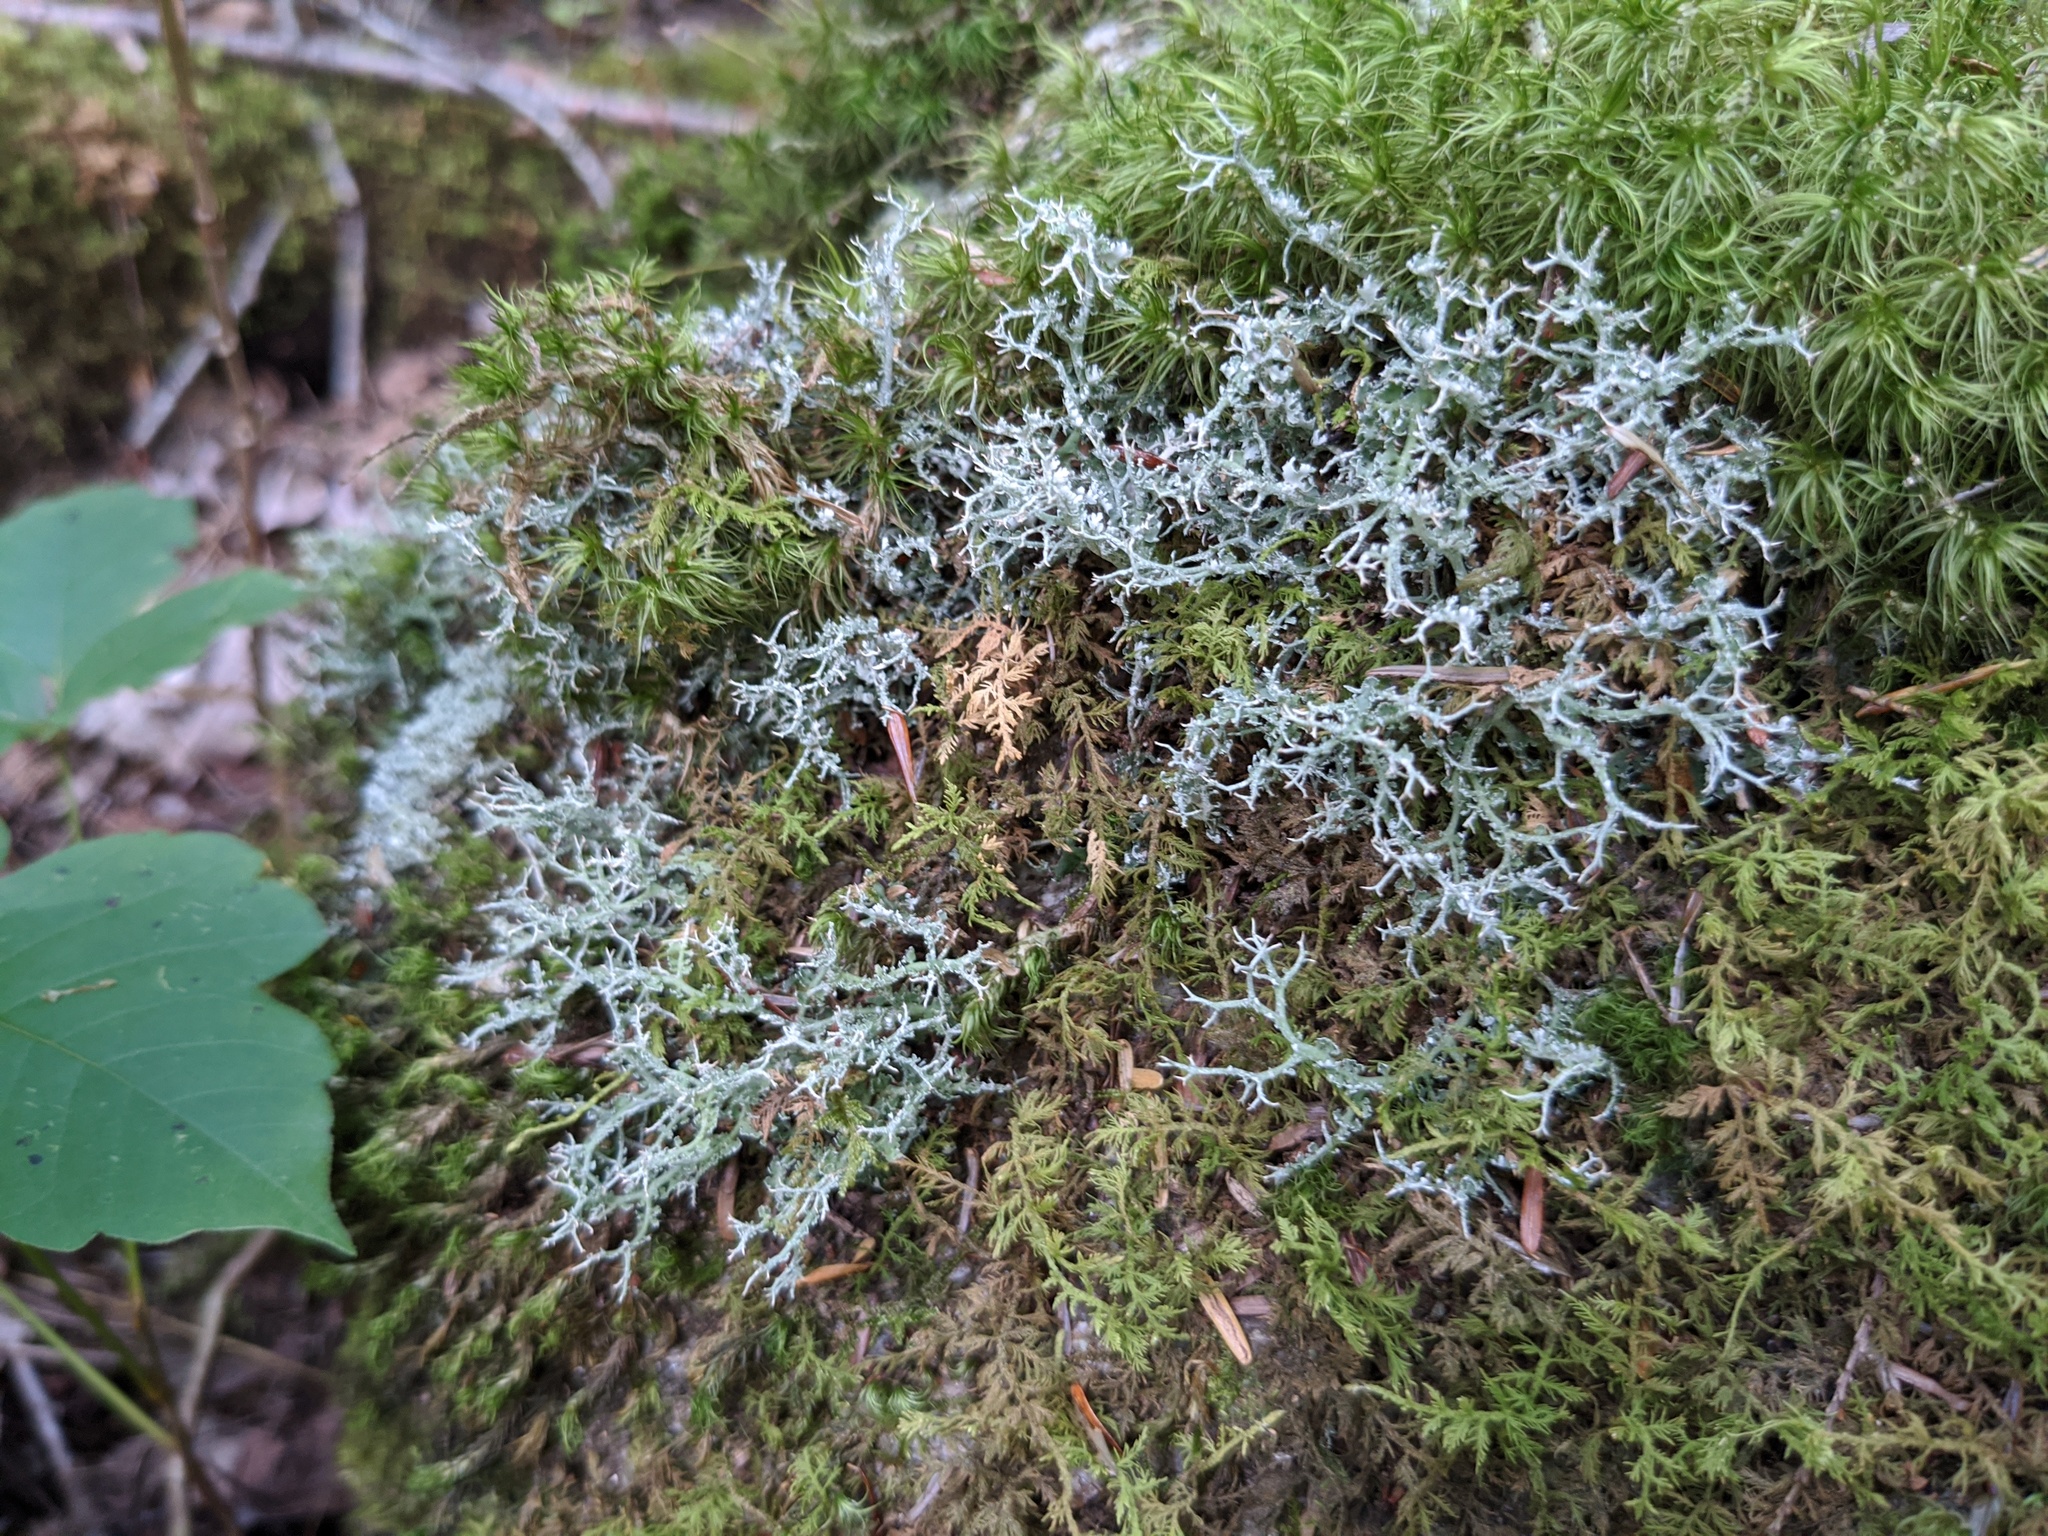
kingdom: Fungi
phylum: Ascomycota
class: Lecanoromycetes
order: Lecanorales
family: Cladoniaceae
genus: Cladonia
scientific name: Cladonia furcata
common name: Many-forked cladonia
